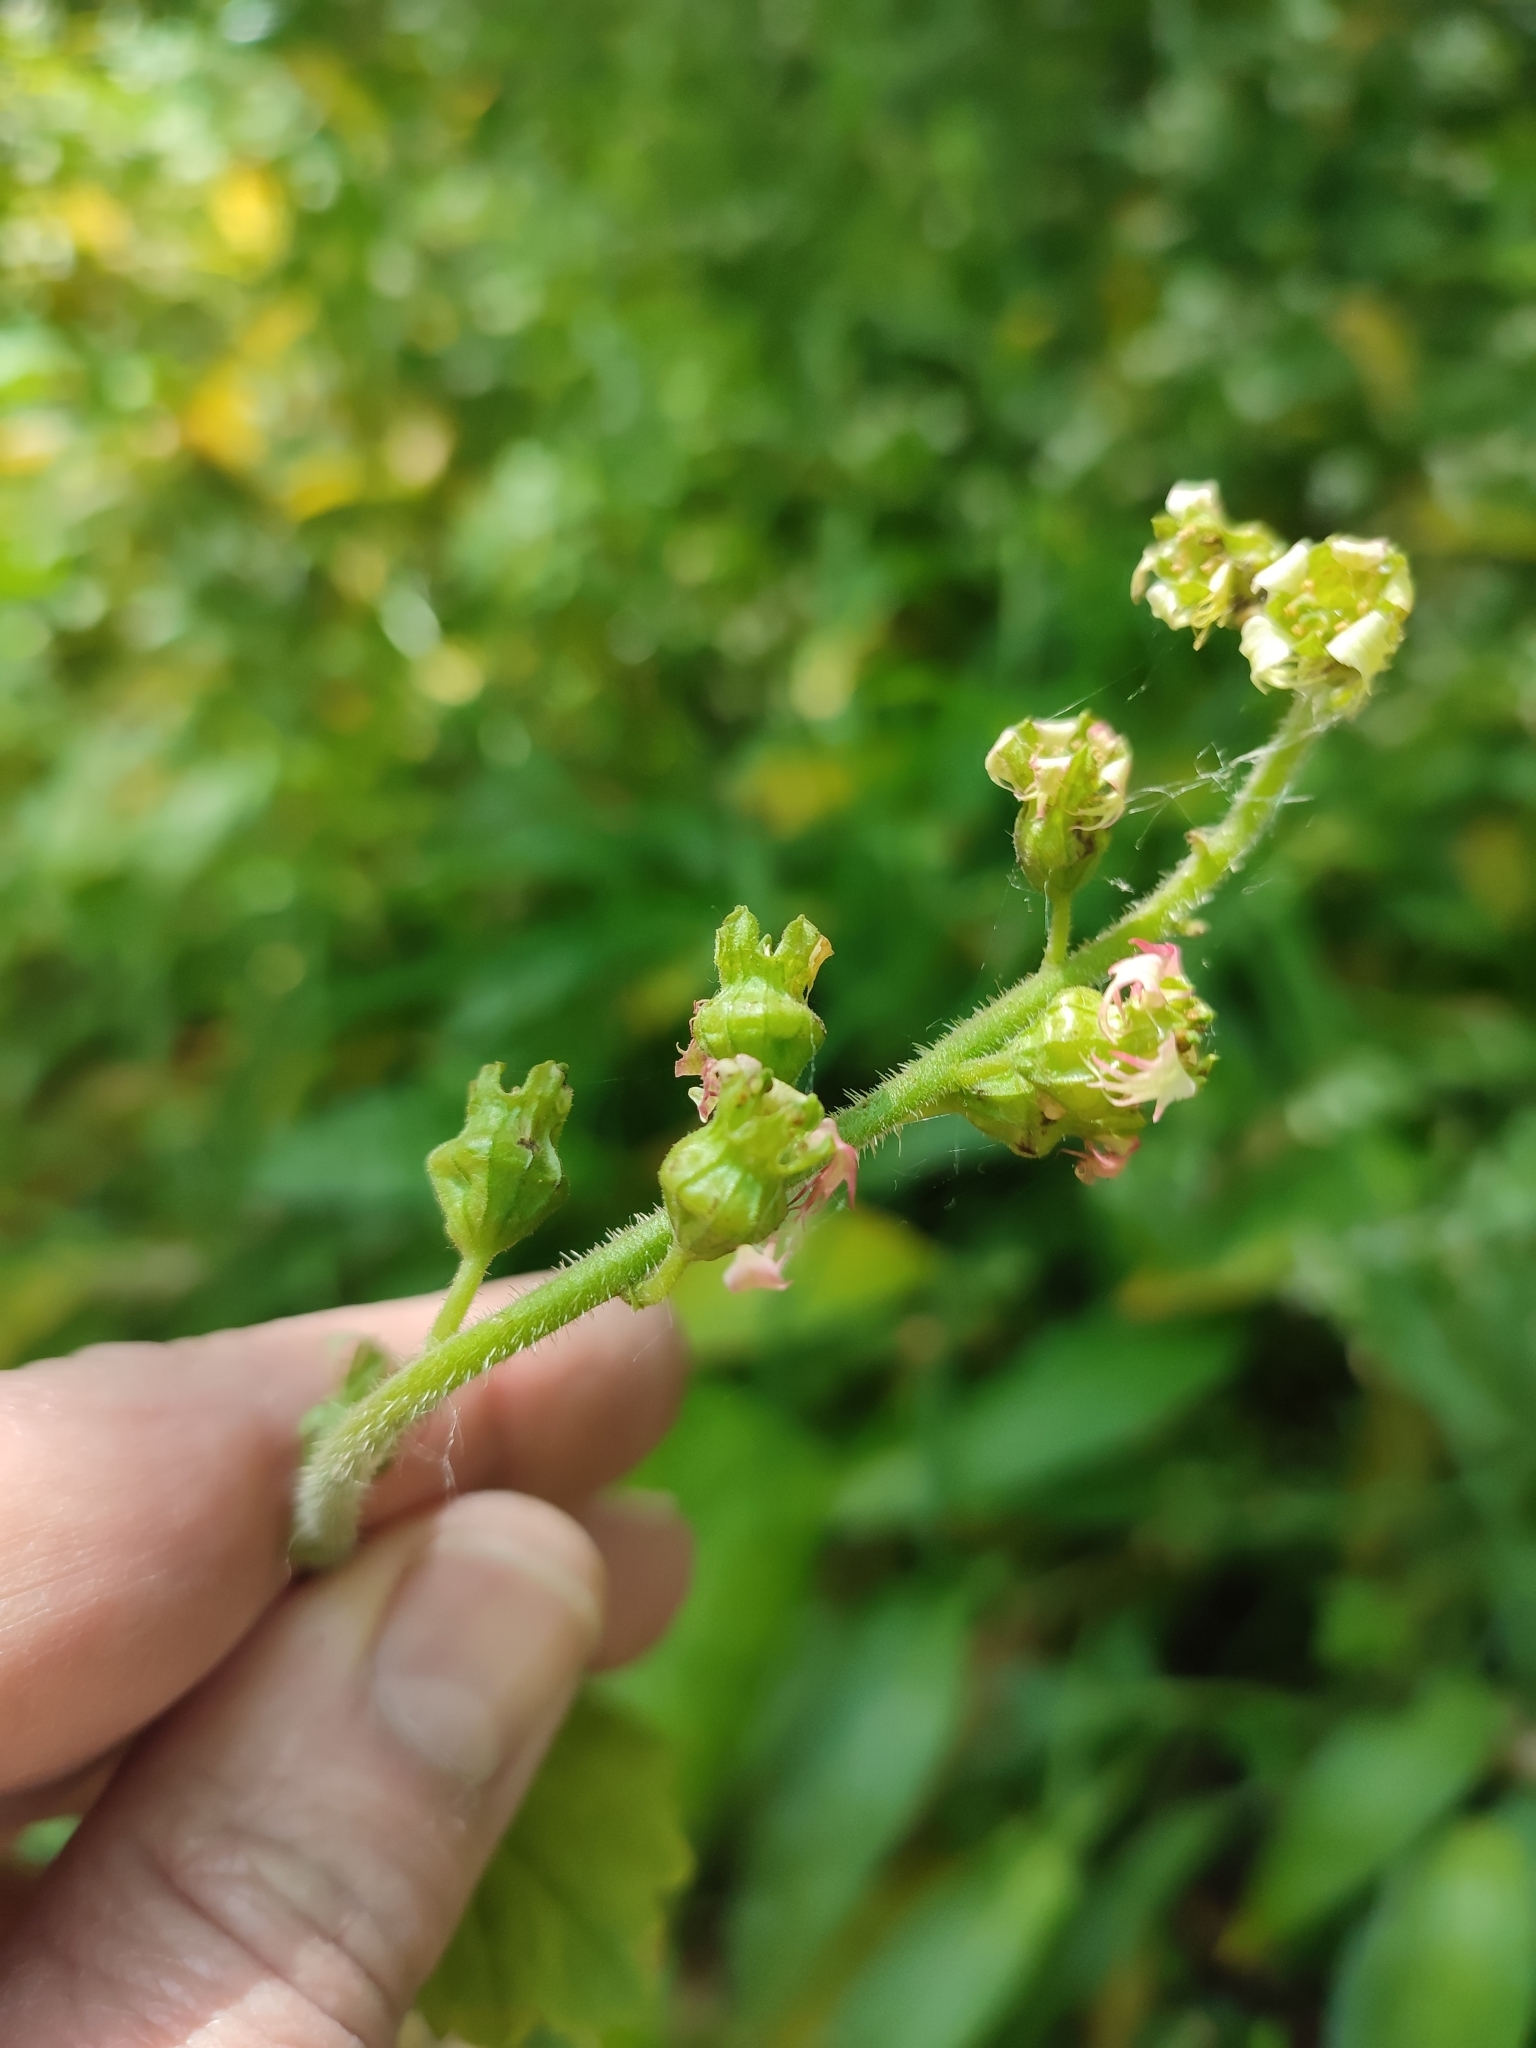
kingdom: Plantae
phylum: Tracheophyta
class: Magnoliopsida
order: Saxifragales
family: Saxifragaceae
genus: Tellima
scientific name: Tellima grandiflora
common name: Fringecups
